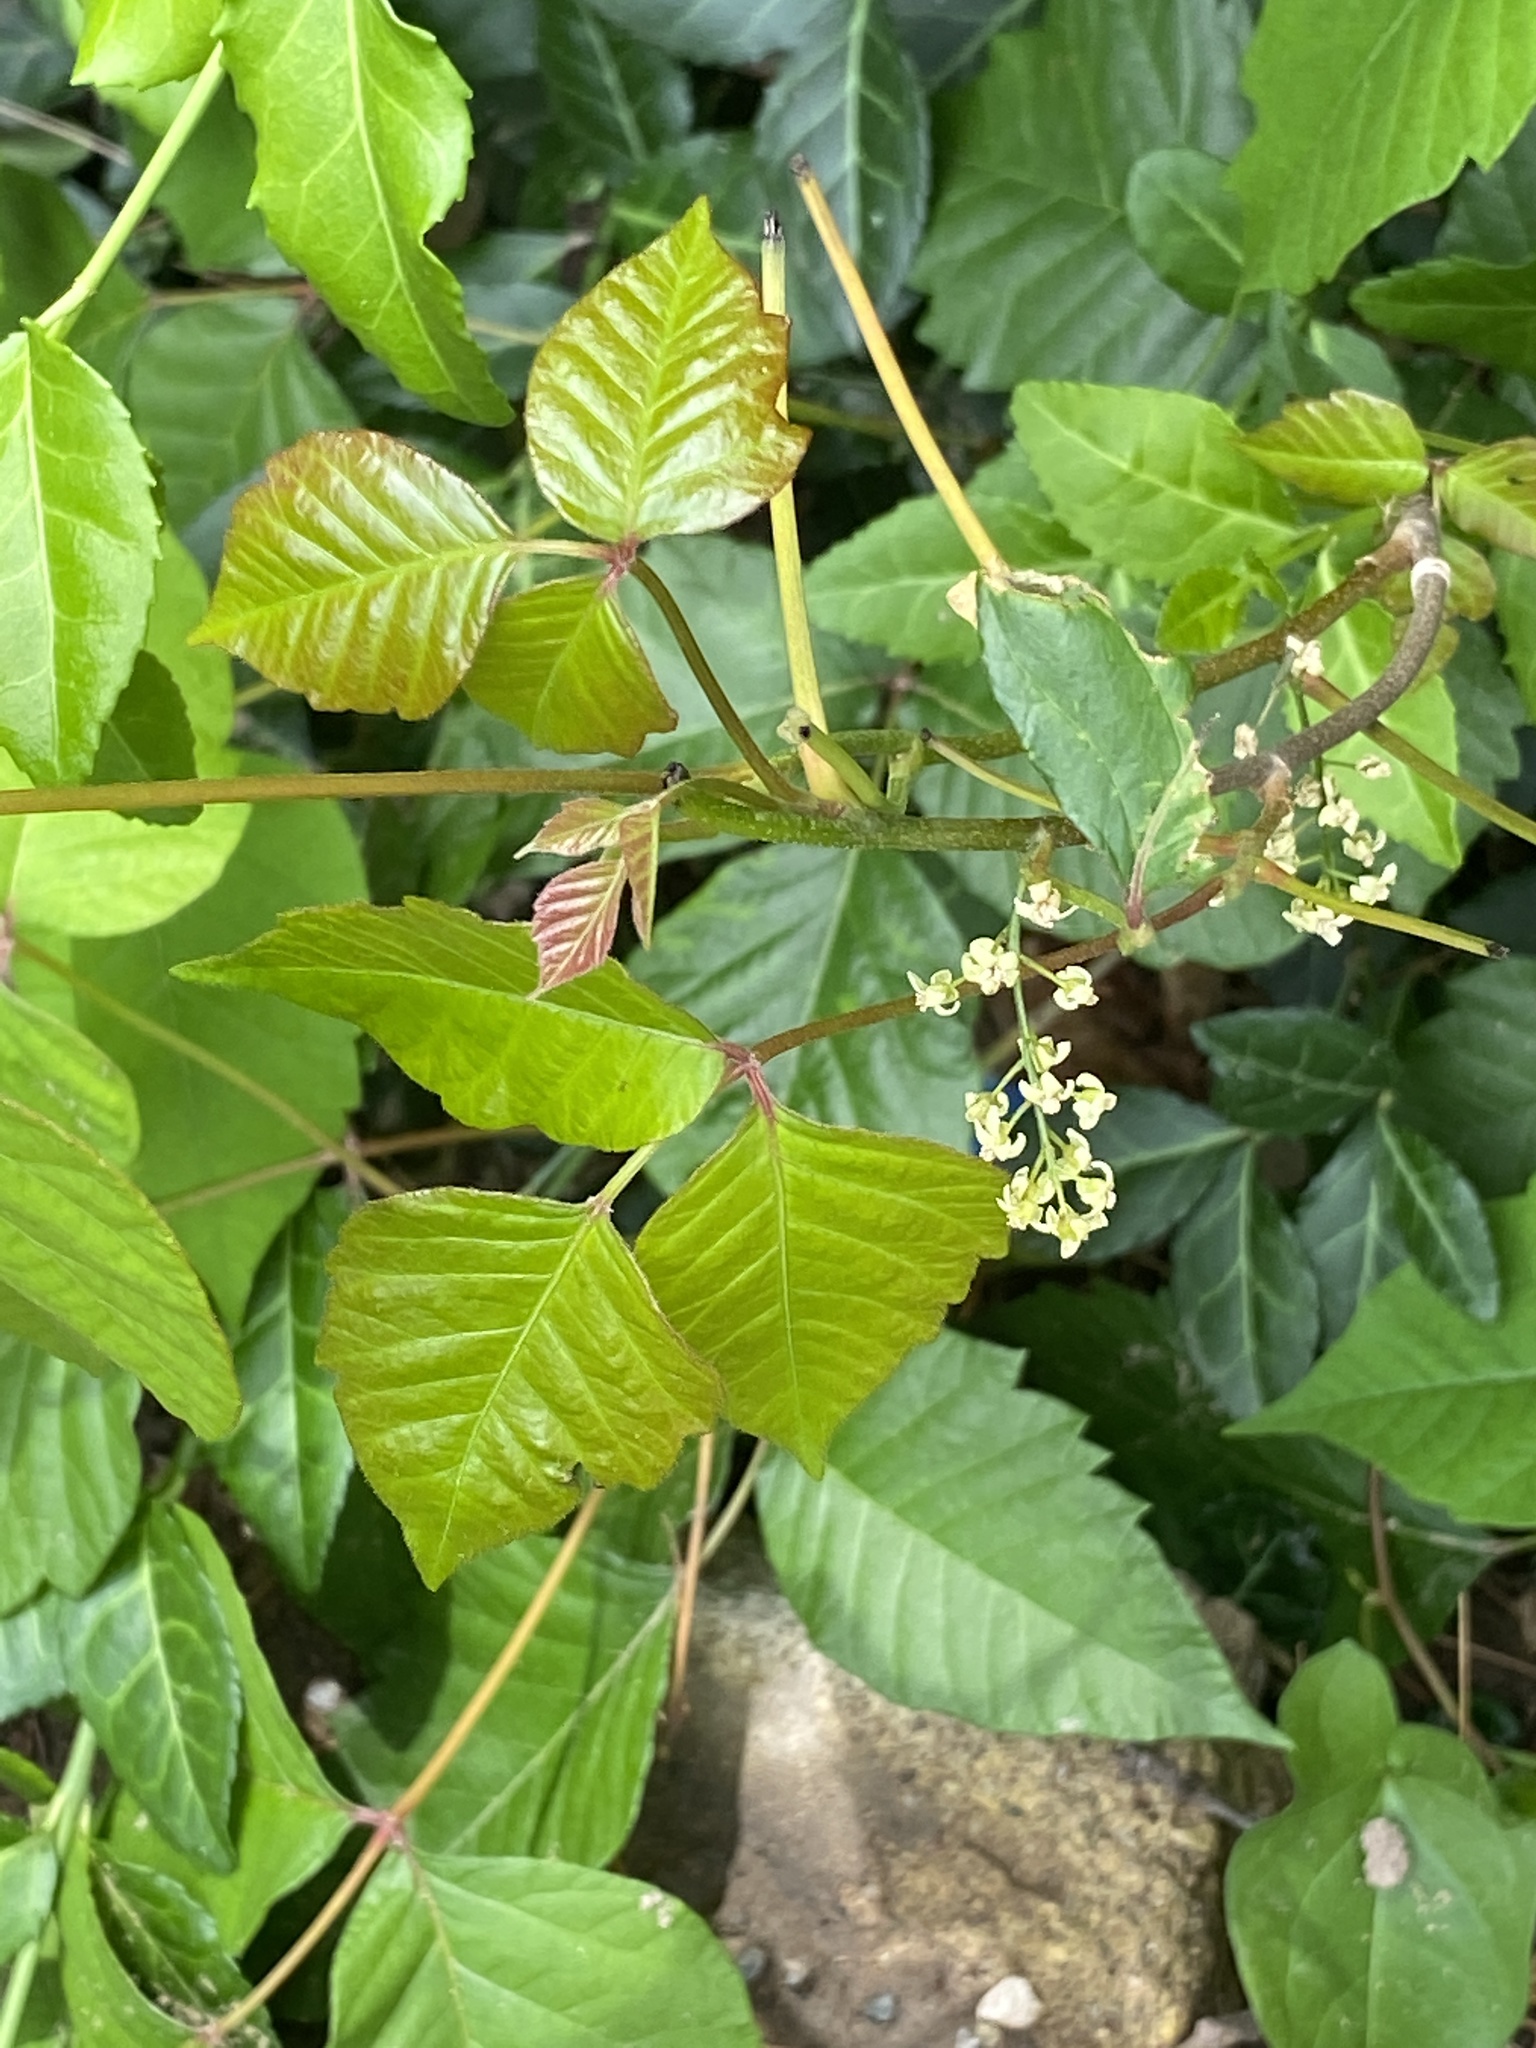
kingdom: Plantae
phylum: Tracheophyta
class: Magnoliopsida
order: Sapindales
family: Anacardiaceae
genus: Toxicodendron
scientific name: Toxicodendron radicans
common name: Poison ivy
